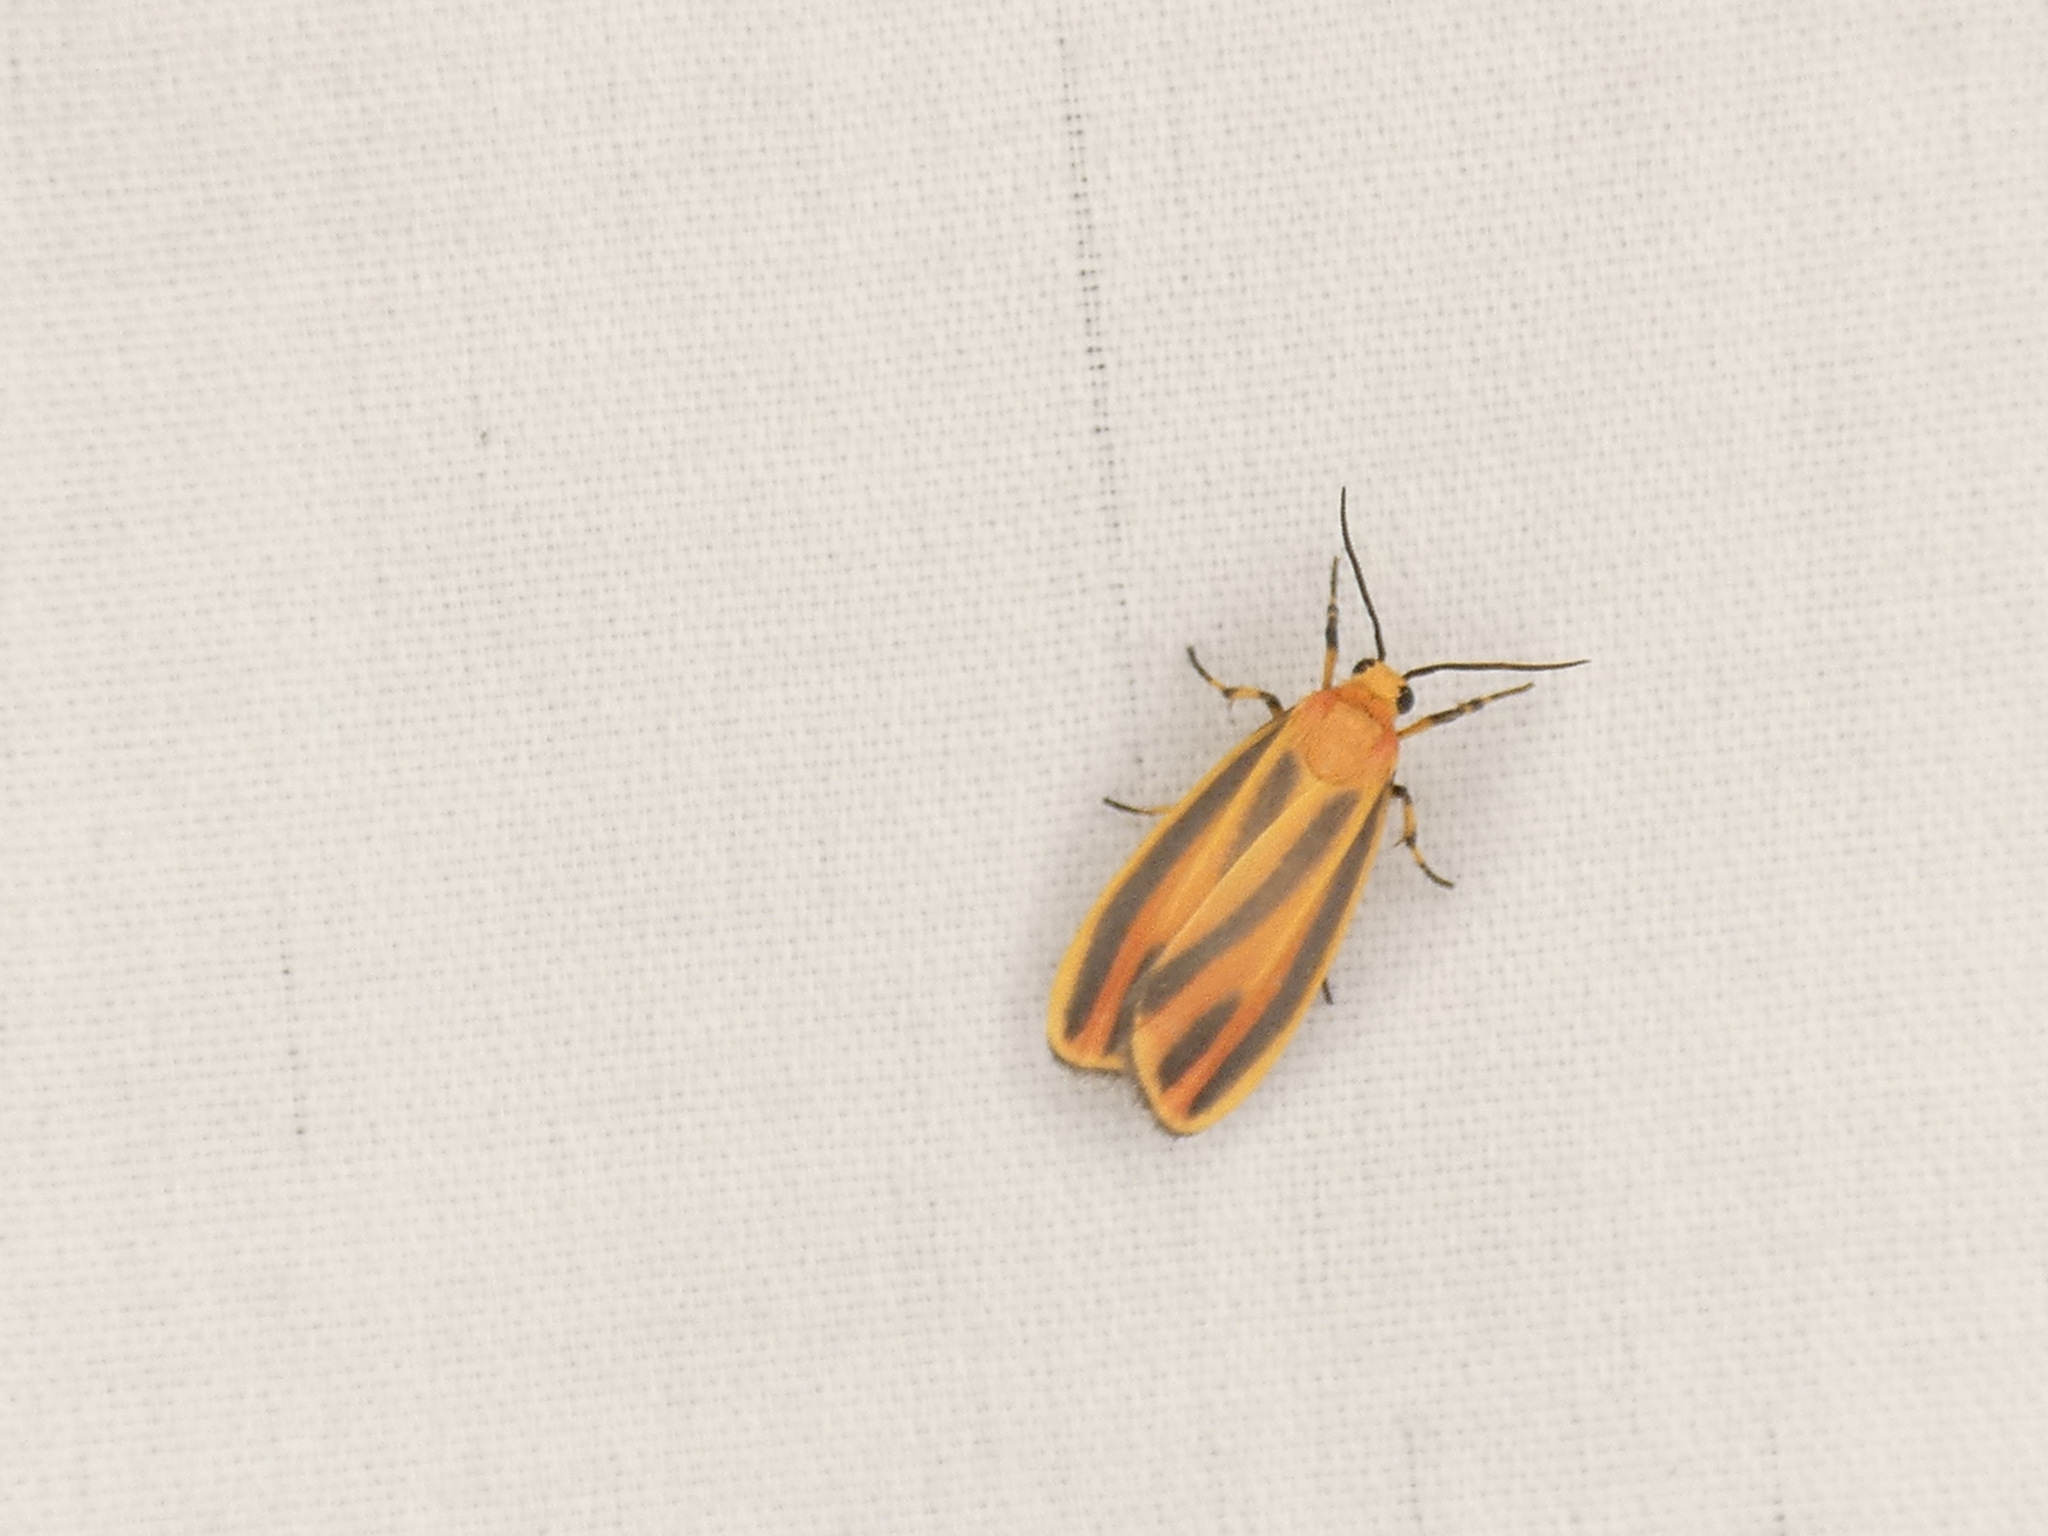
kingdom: Animalia
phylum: Arthropoda
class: Insecta
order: Lepidoptera
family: Erebidae
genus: Hypoprepia
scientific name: Hypoprepia fucosa
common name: Painted lichen moth
